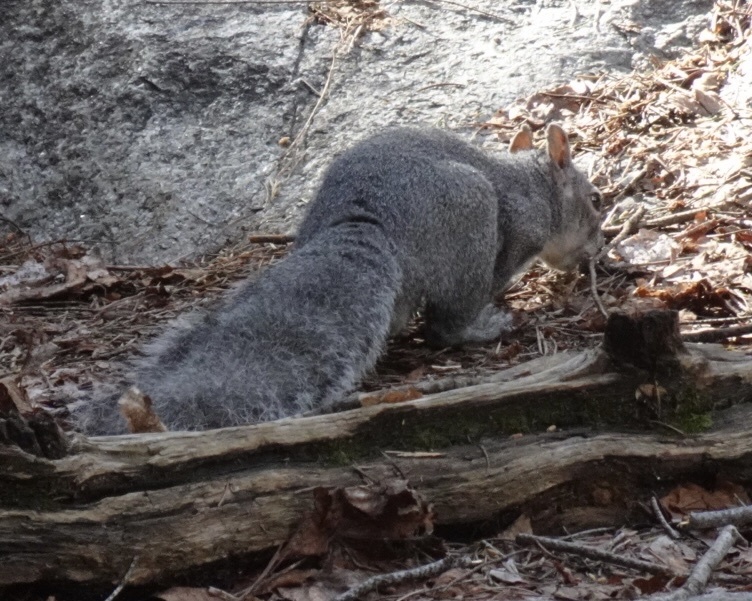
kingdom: Animalia
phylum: Chordata
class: Mammalia
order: Rodentia
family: Sciuridae
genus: Sciurus
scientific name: Sciurus griseus
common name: Western gray squirrel
